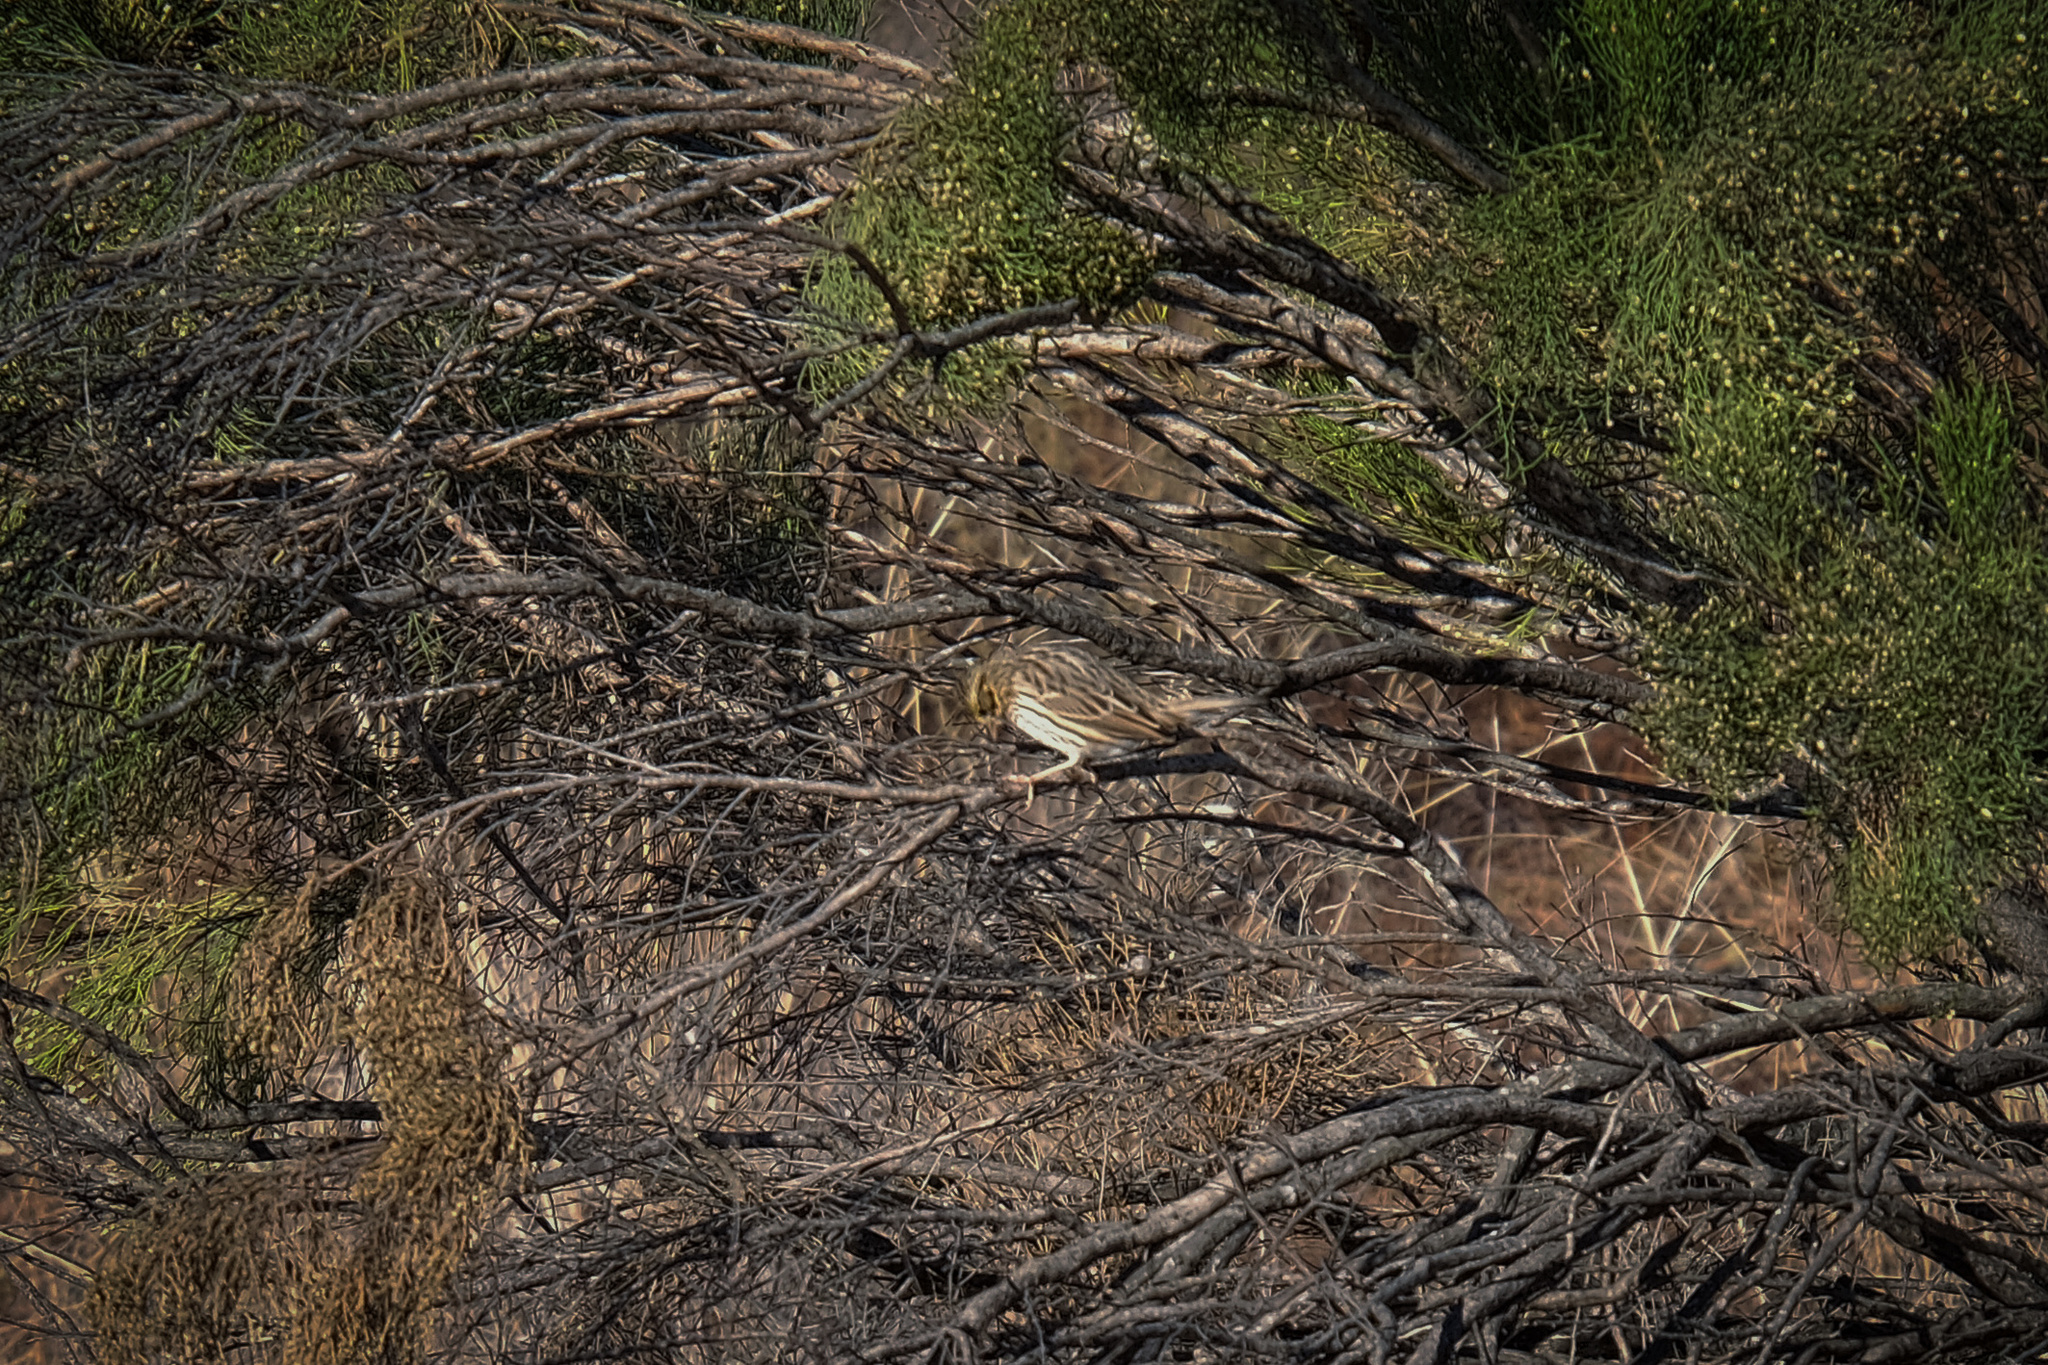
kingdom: Animalia
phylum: Chordata
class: Aves
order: Passeriformes
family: Passerellidae
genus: Passerculus
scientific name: Passerculus sandwichensis
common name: Savannah sparrow
